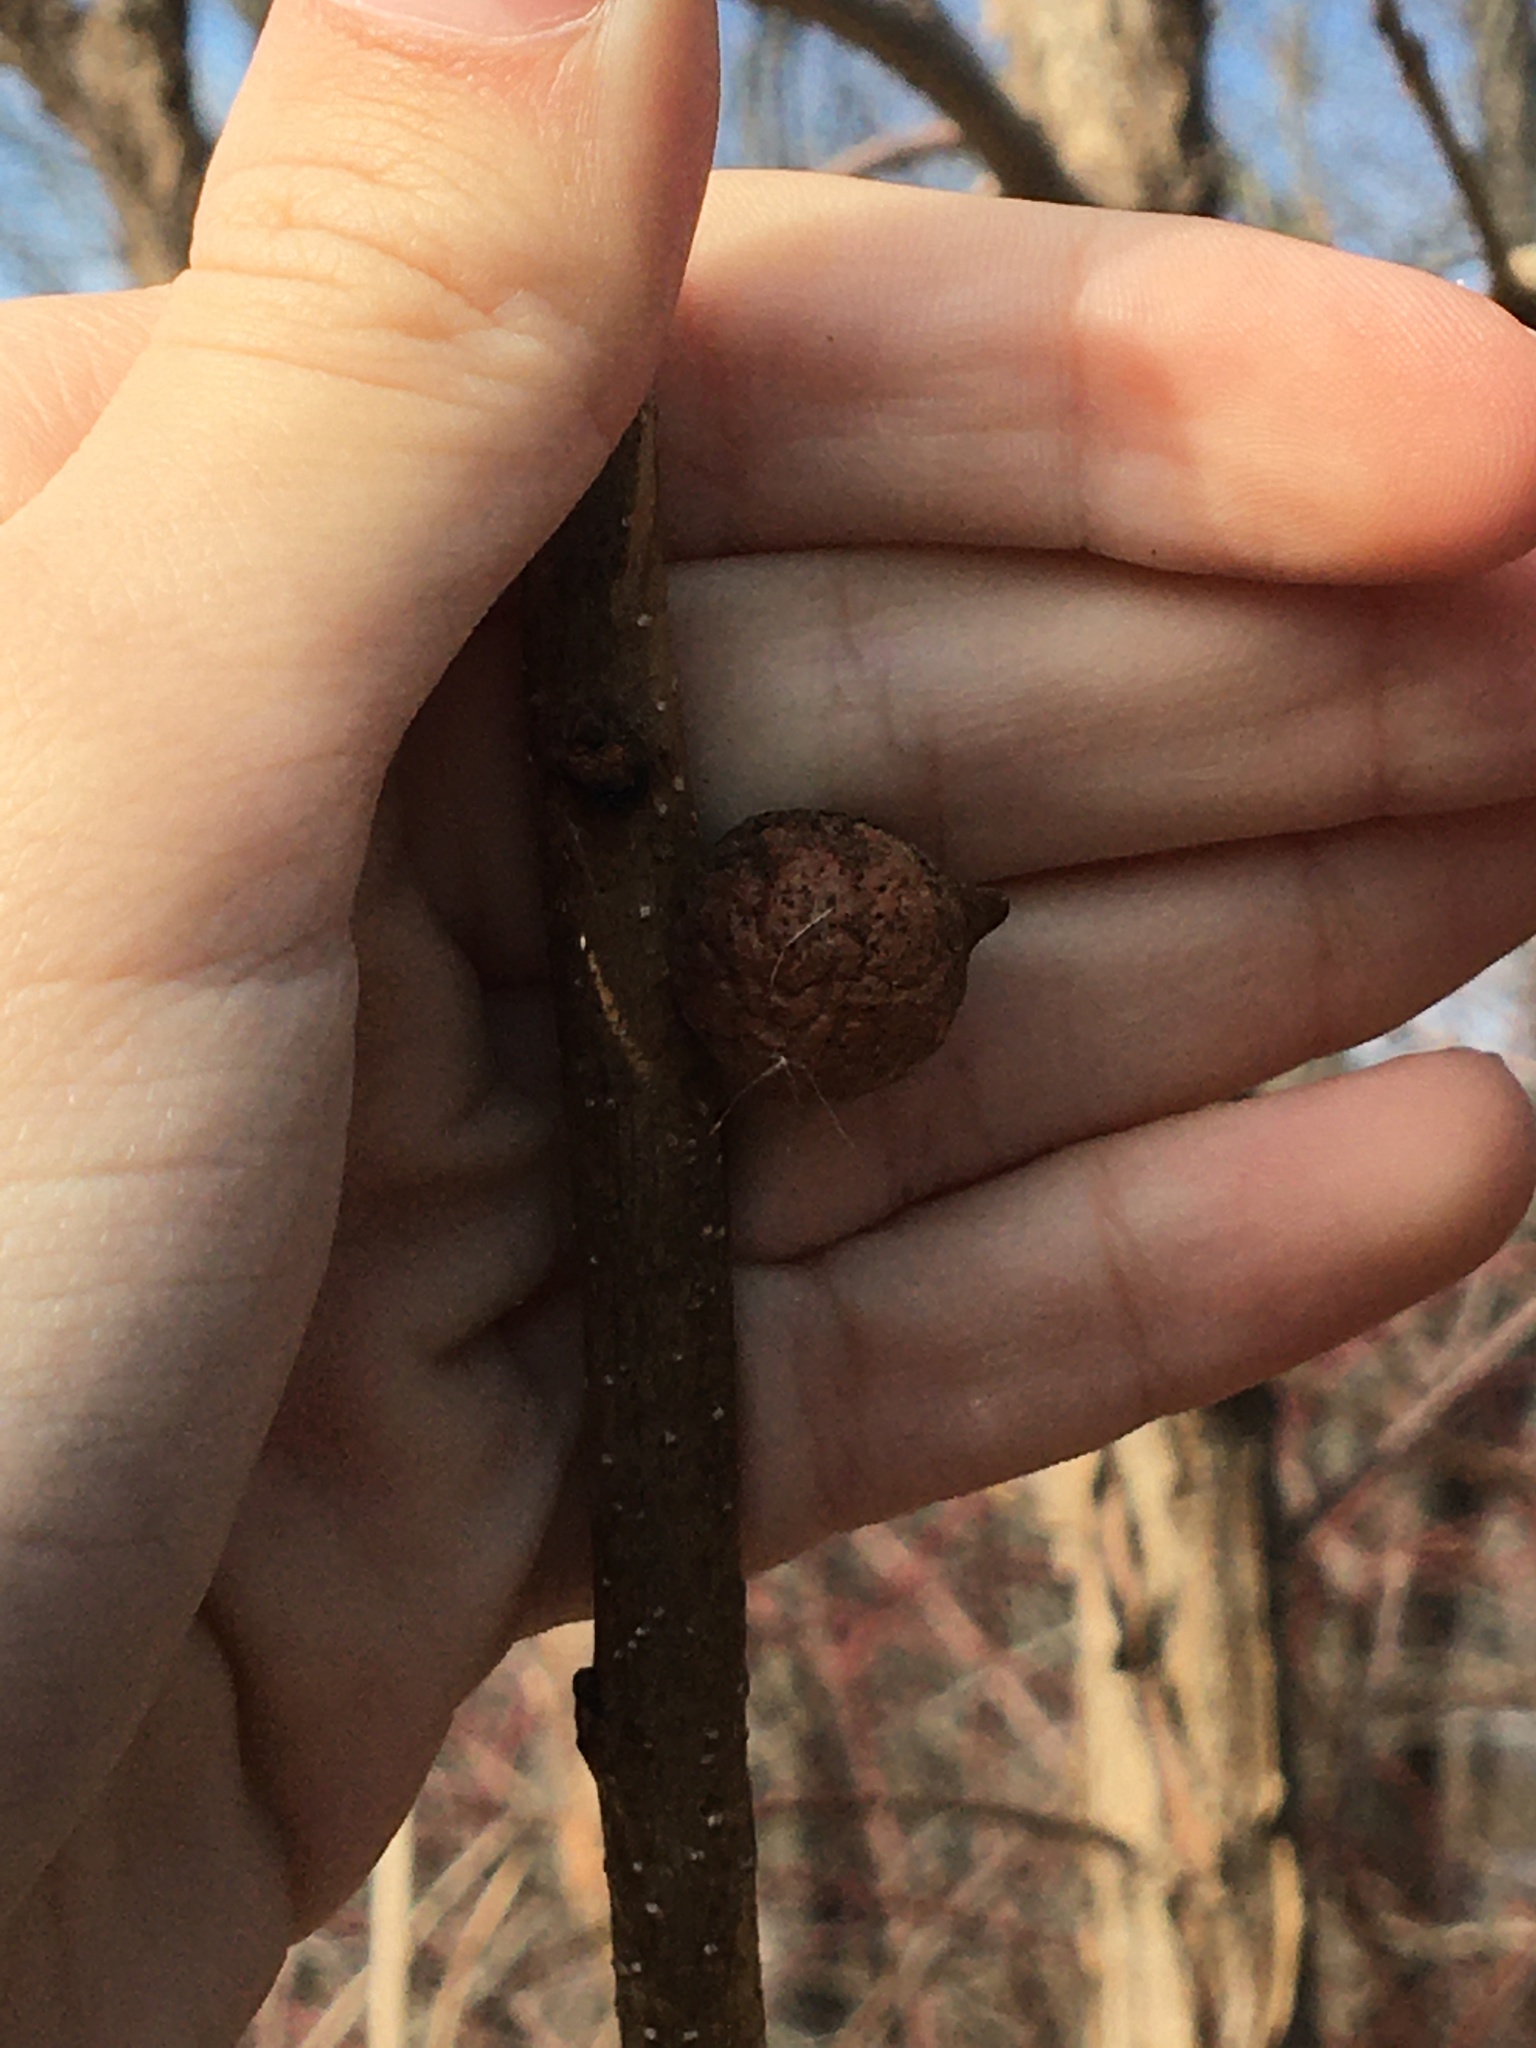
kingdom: Animalia
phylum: Arthropoda
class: Insecta
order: Hymenoptera
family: Cynipidae
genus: Callirhytis
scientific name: Callirhytis
